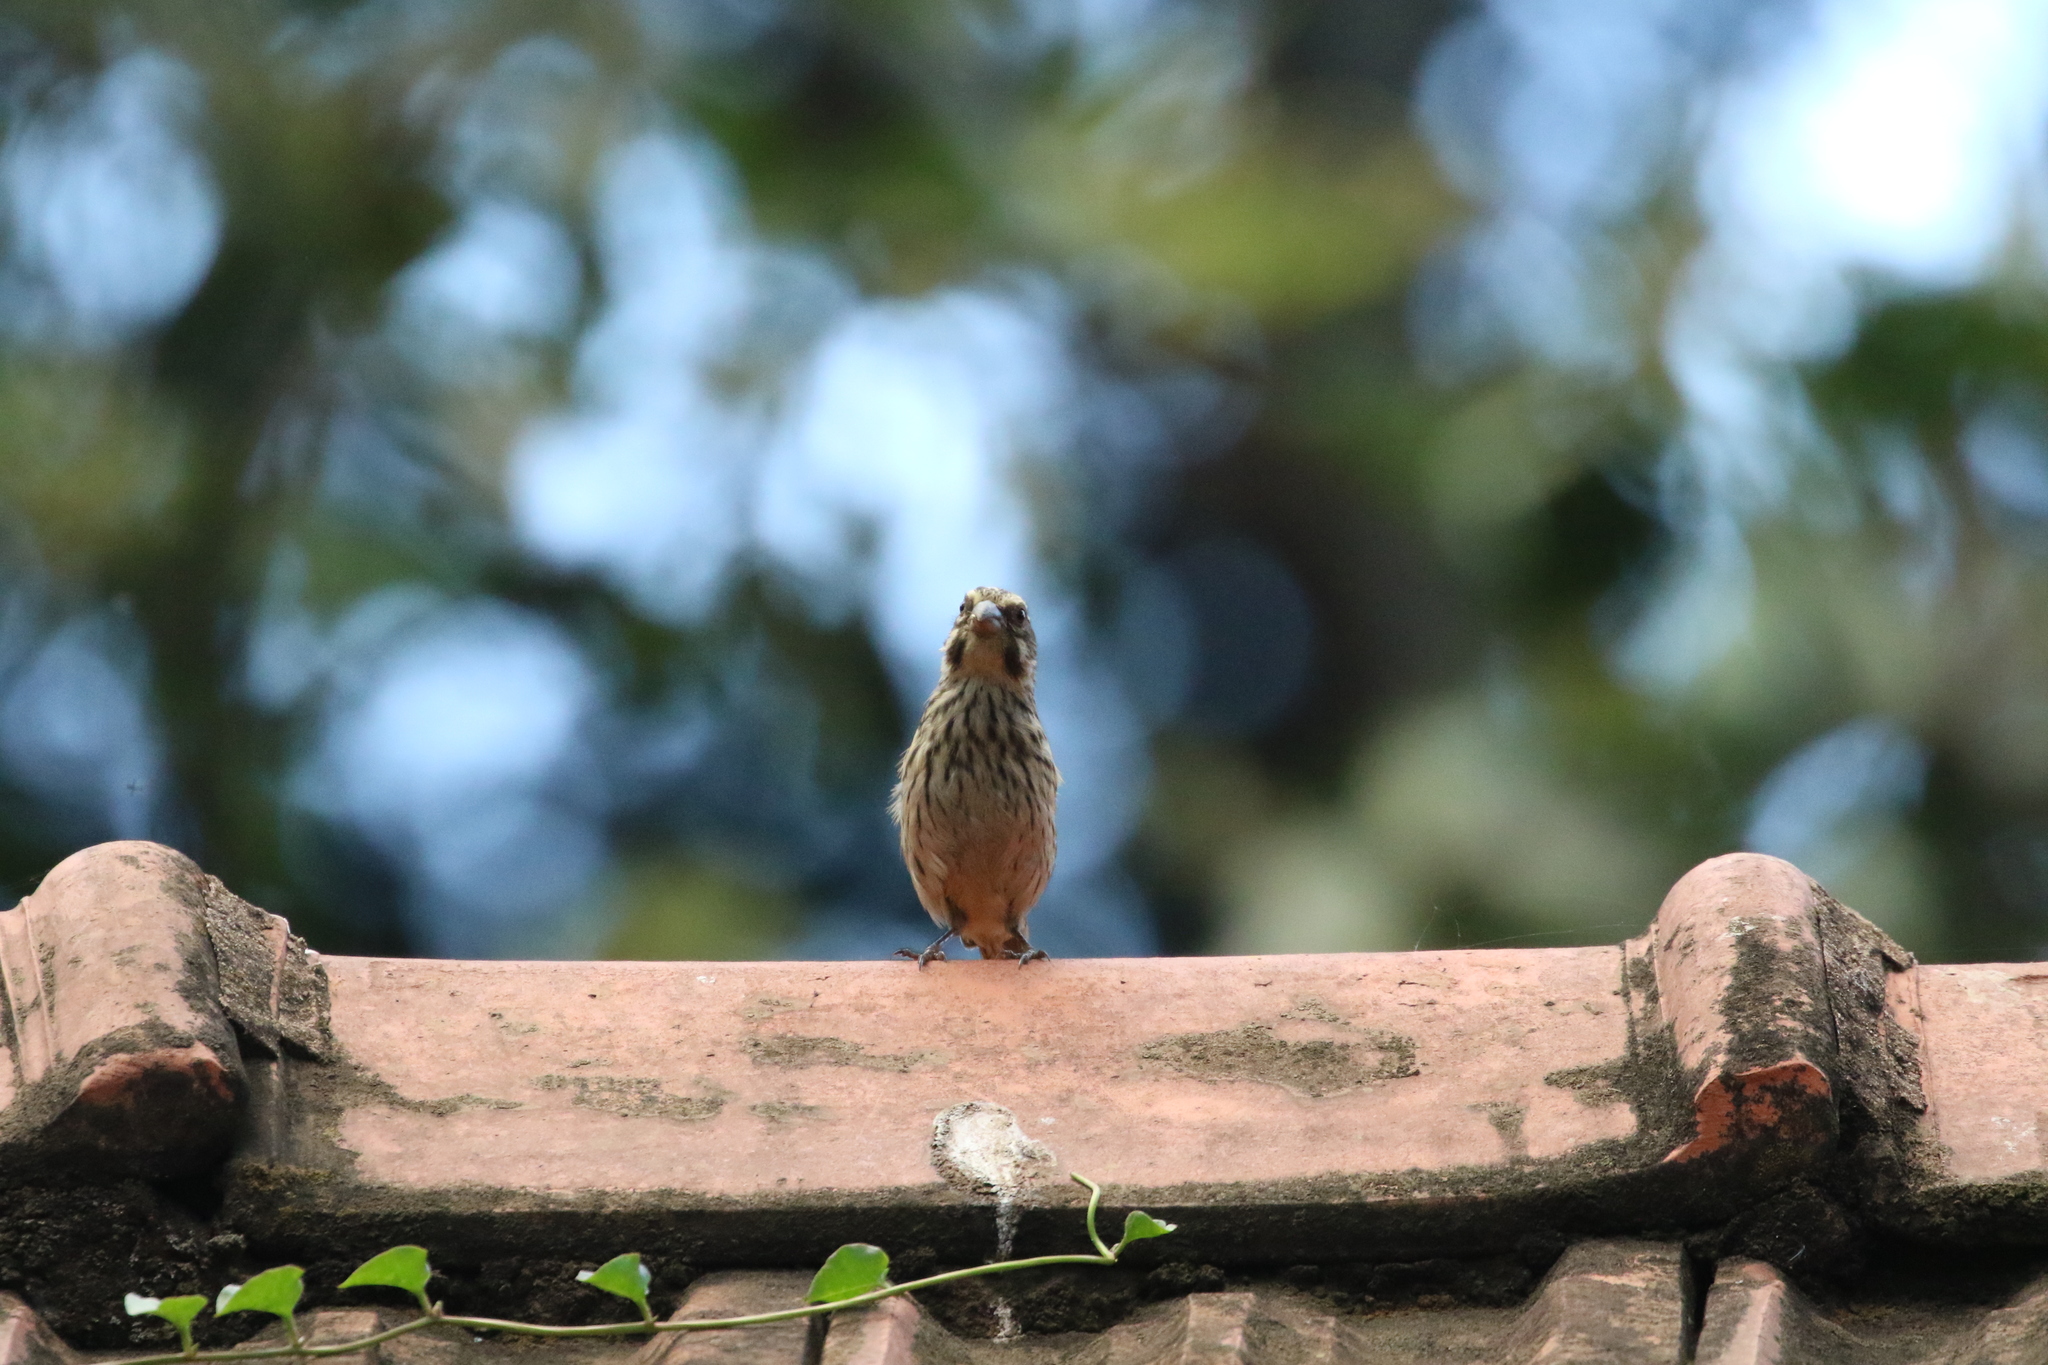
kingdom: Animalia
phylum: Chordata
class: Aves
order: Passeriformes
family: Fringillidae
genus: Crithagra
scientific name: Crithagra striolata
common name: Streaky seedeater
